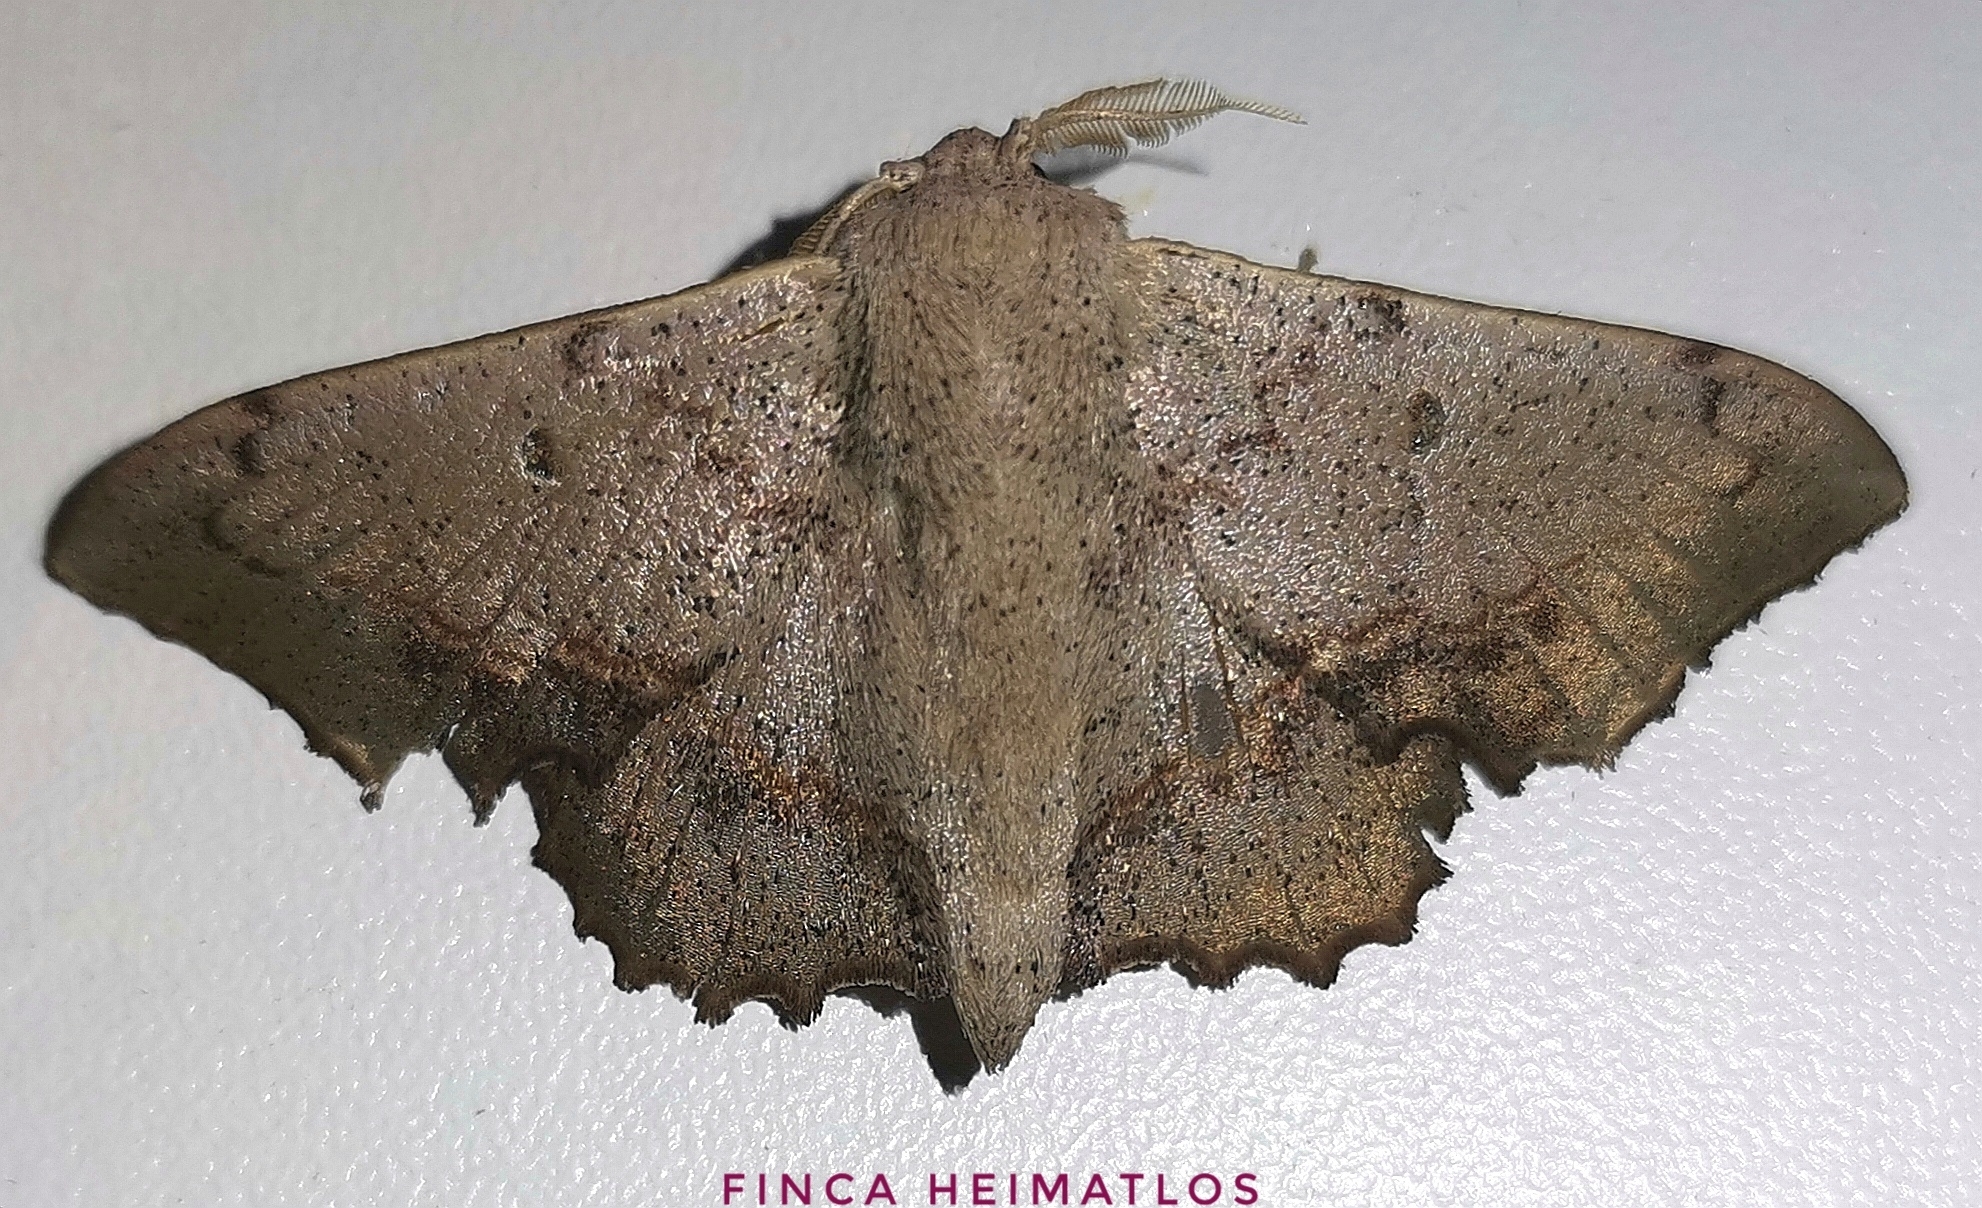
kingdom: Animalia
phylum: Arthropoda
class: Insecta
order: Lepidoptera
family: Mimallonidae
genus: Mimallo
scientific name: Mimallo brosica
